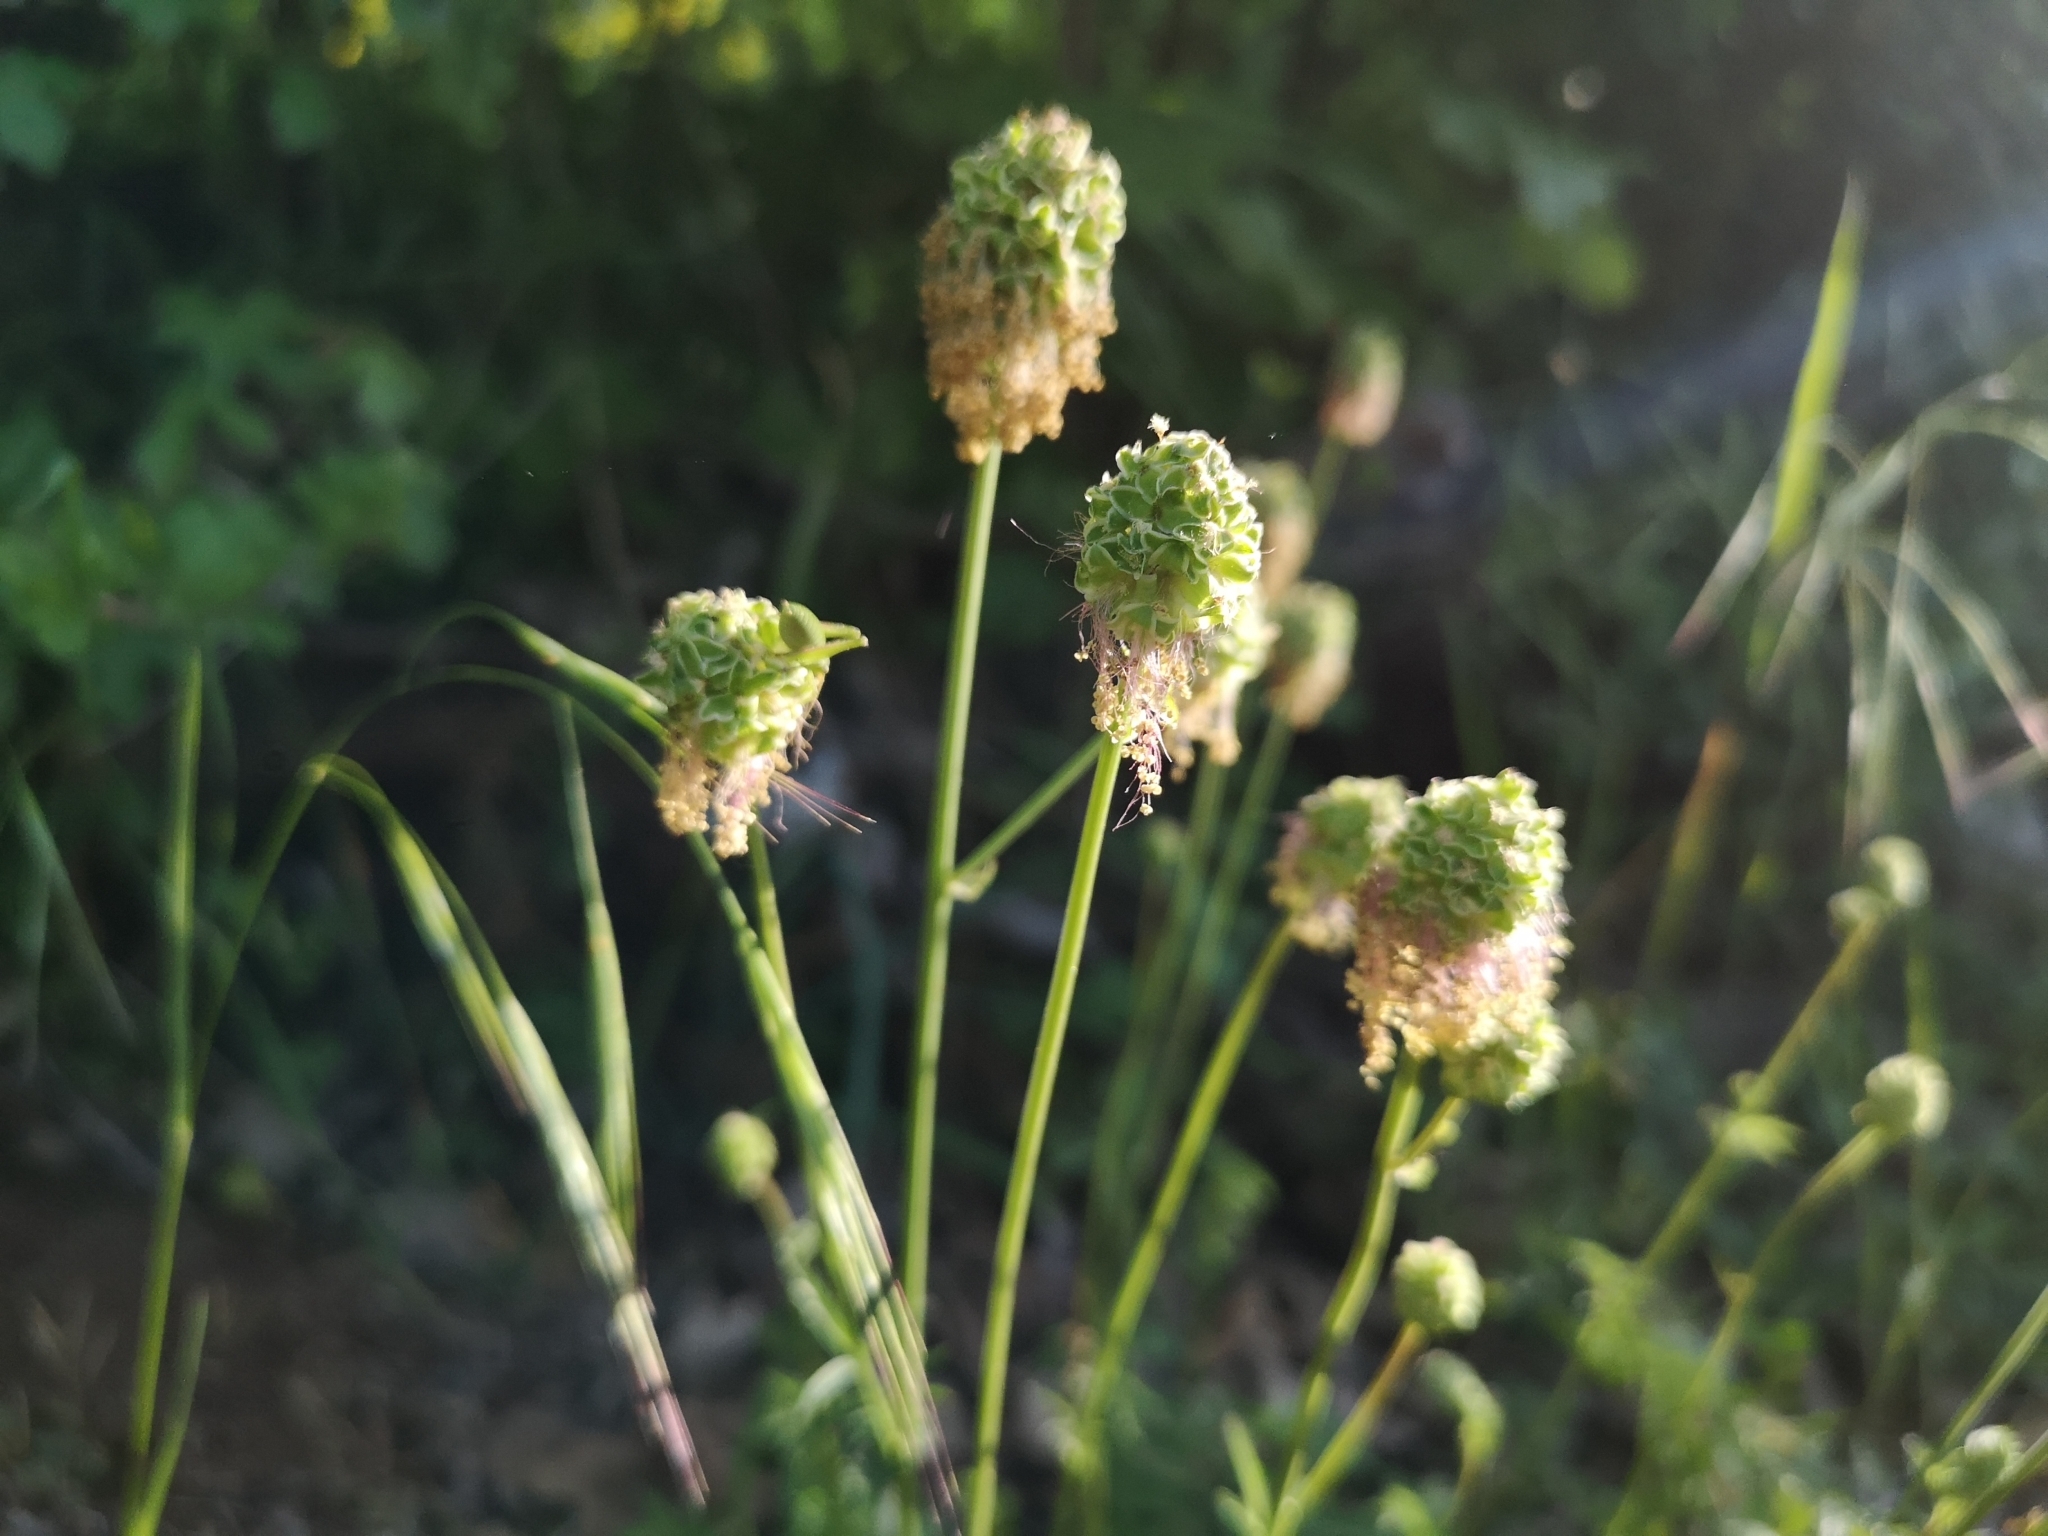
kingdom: Plantae
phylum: Tracheophyta
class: Magnoliopsida
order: Rosales
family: Rosaceae
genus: Poterium
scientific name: Poterium sanguisorba
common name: Salad burnet
